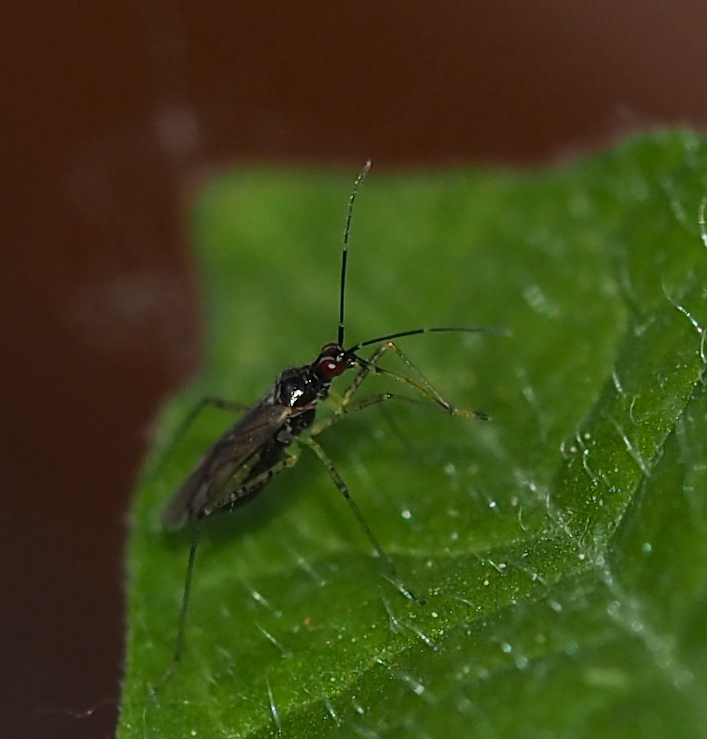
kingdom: Animalia
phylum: Arthropoda
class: Insecta
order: Hemiptera
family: Miridae
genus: Dicyphus
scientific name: Dicyphus errans
